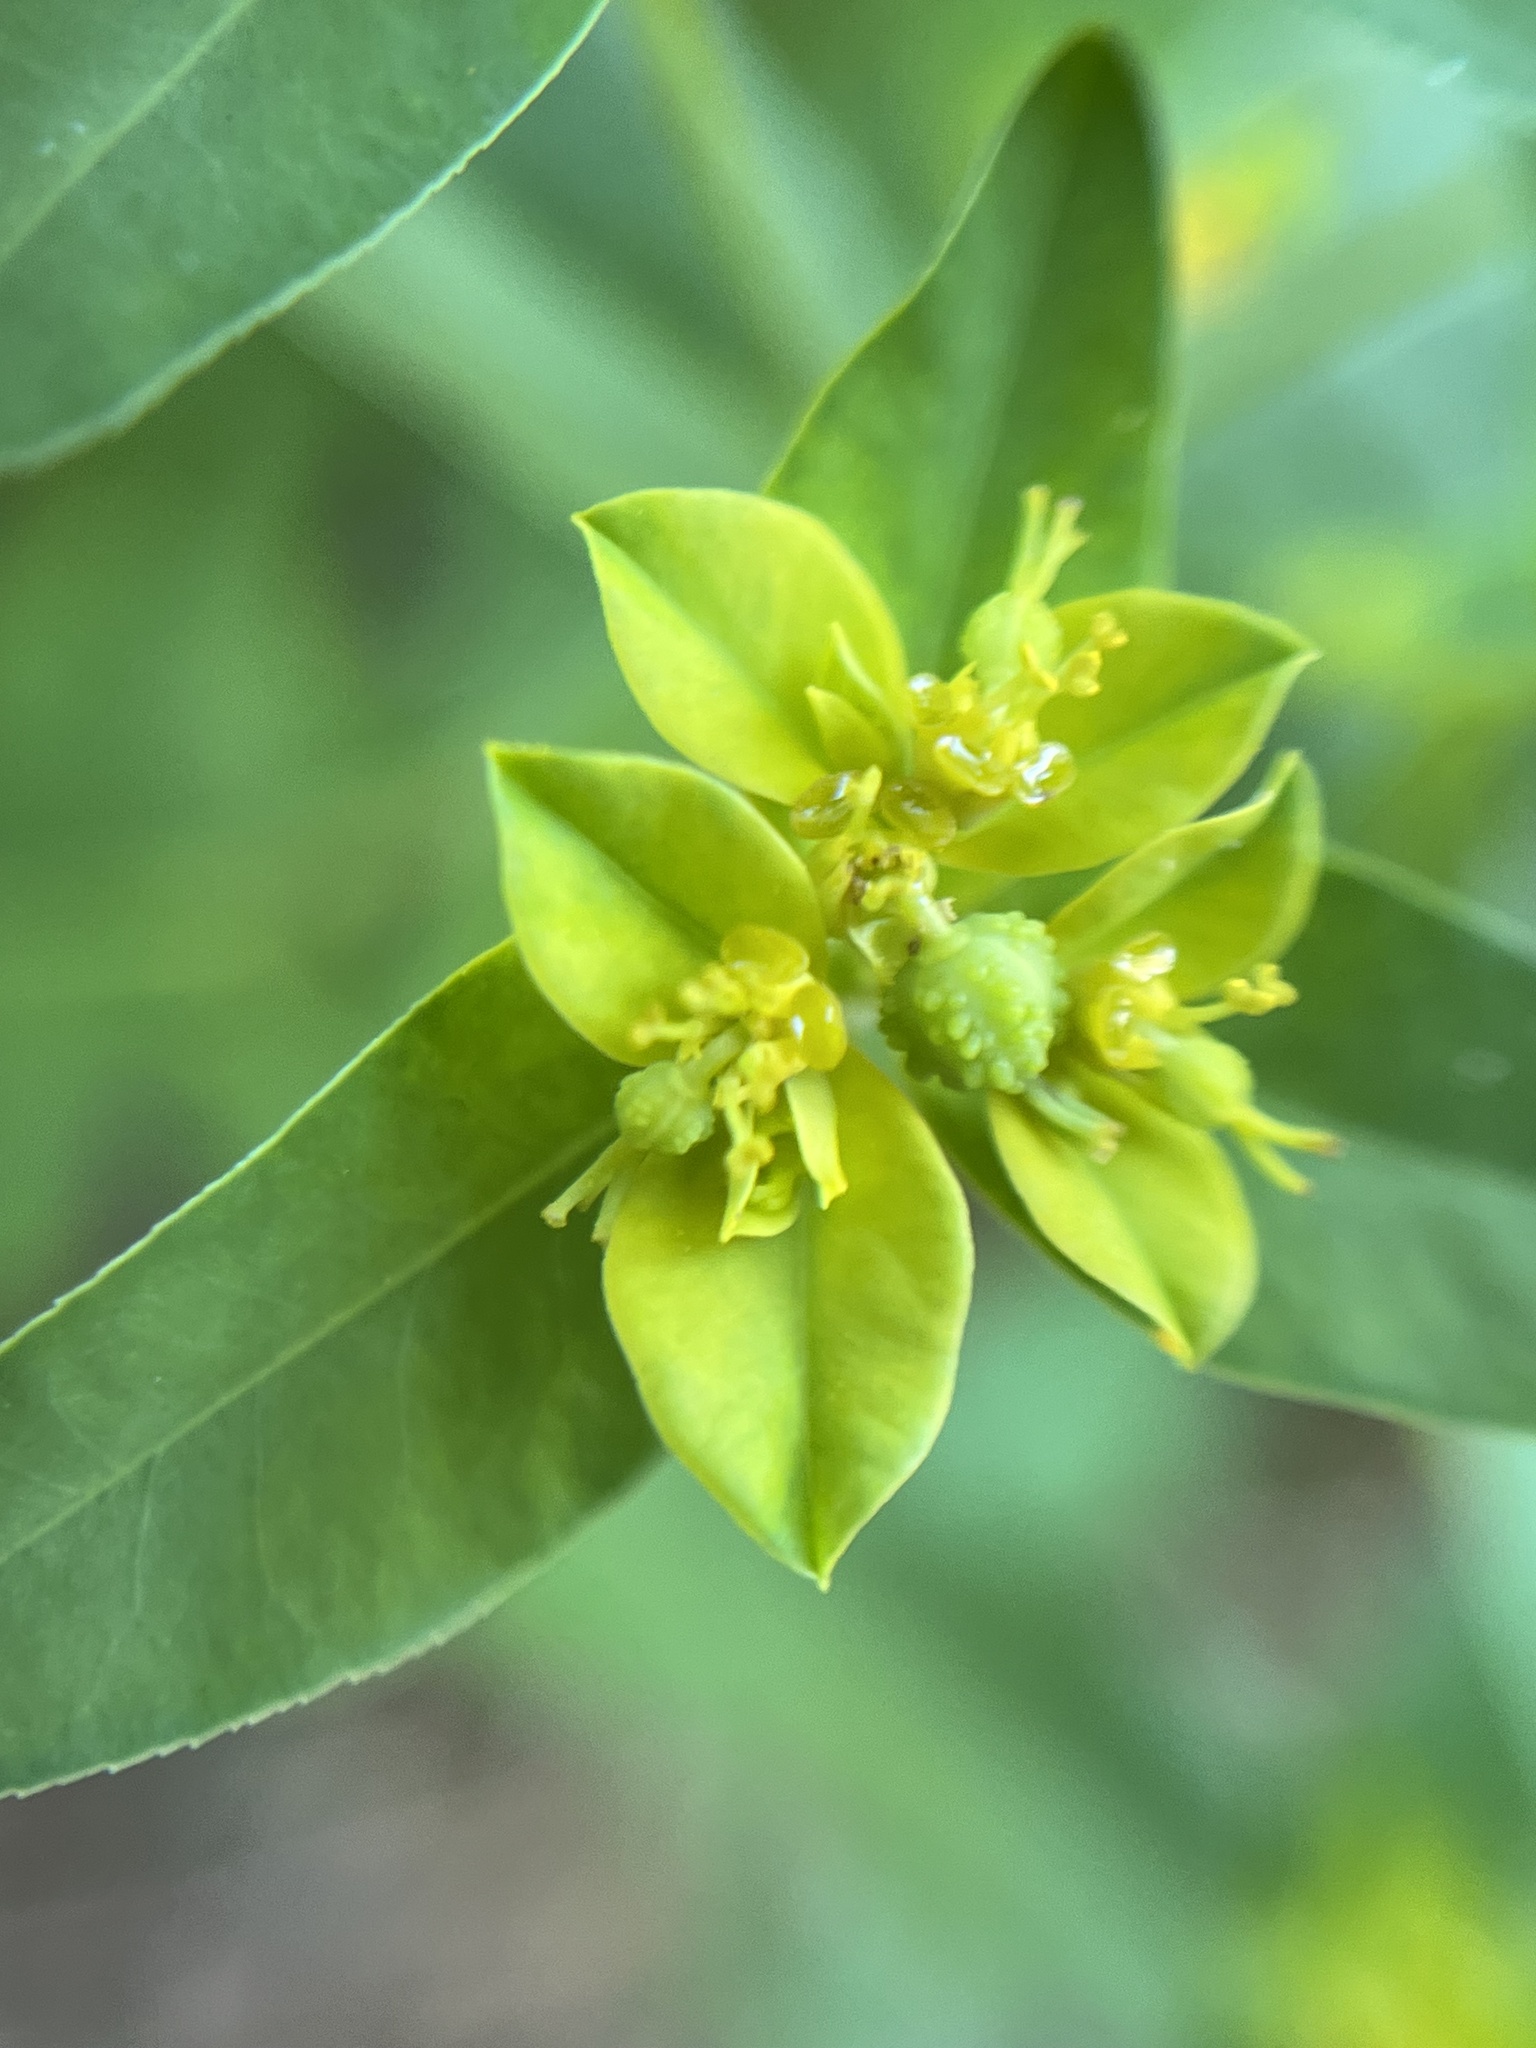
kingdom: Plantae
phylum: Tracheophyta
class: Magnoliopsida
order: Malpighiales
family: Euphorbiaceae
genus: Euphorbia
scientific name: Euphorbia oblongata
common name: Balkan spurge
